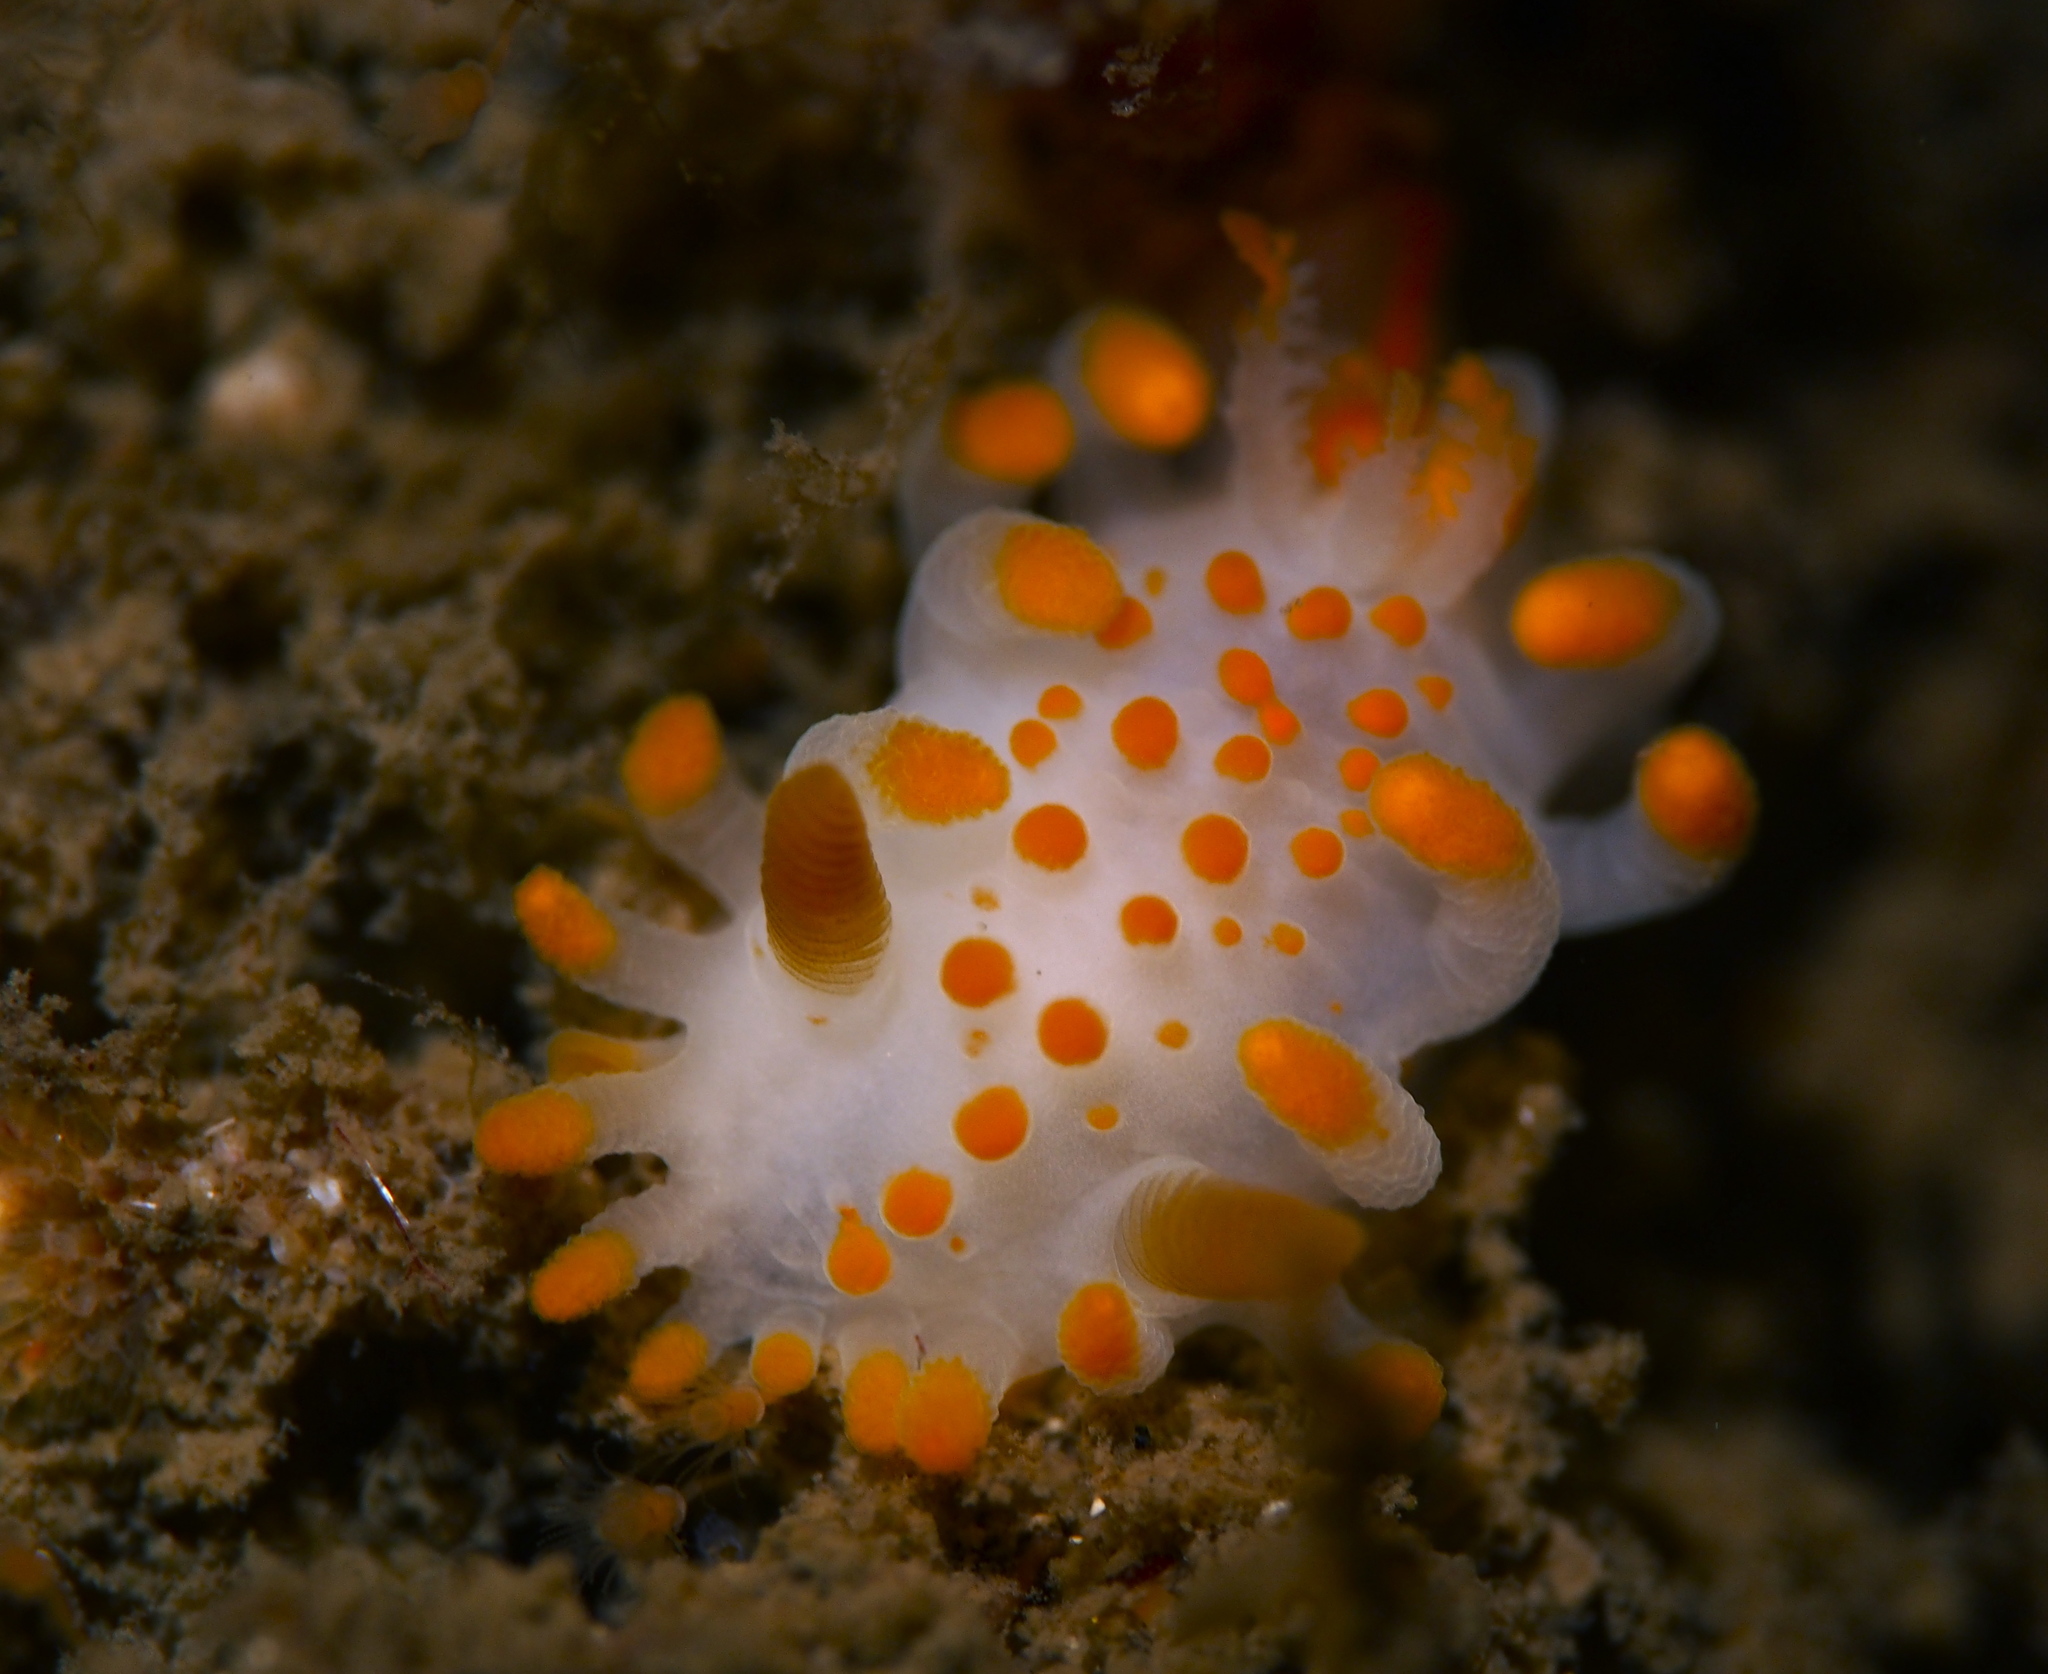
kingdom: Animalia
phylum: Mollusca
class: Gastropoda
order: Nudibranchia
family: Polyceridae
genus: Limacia
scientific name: Limacia clavigera
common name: Orange-clubbed sea slug
